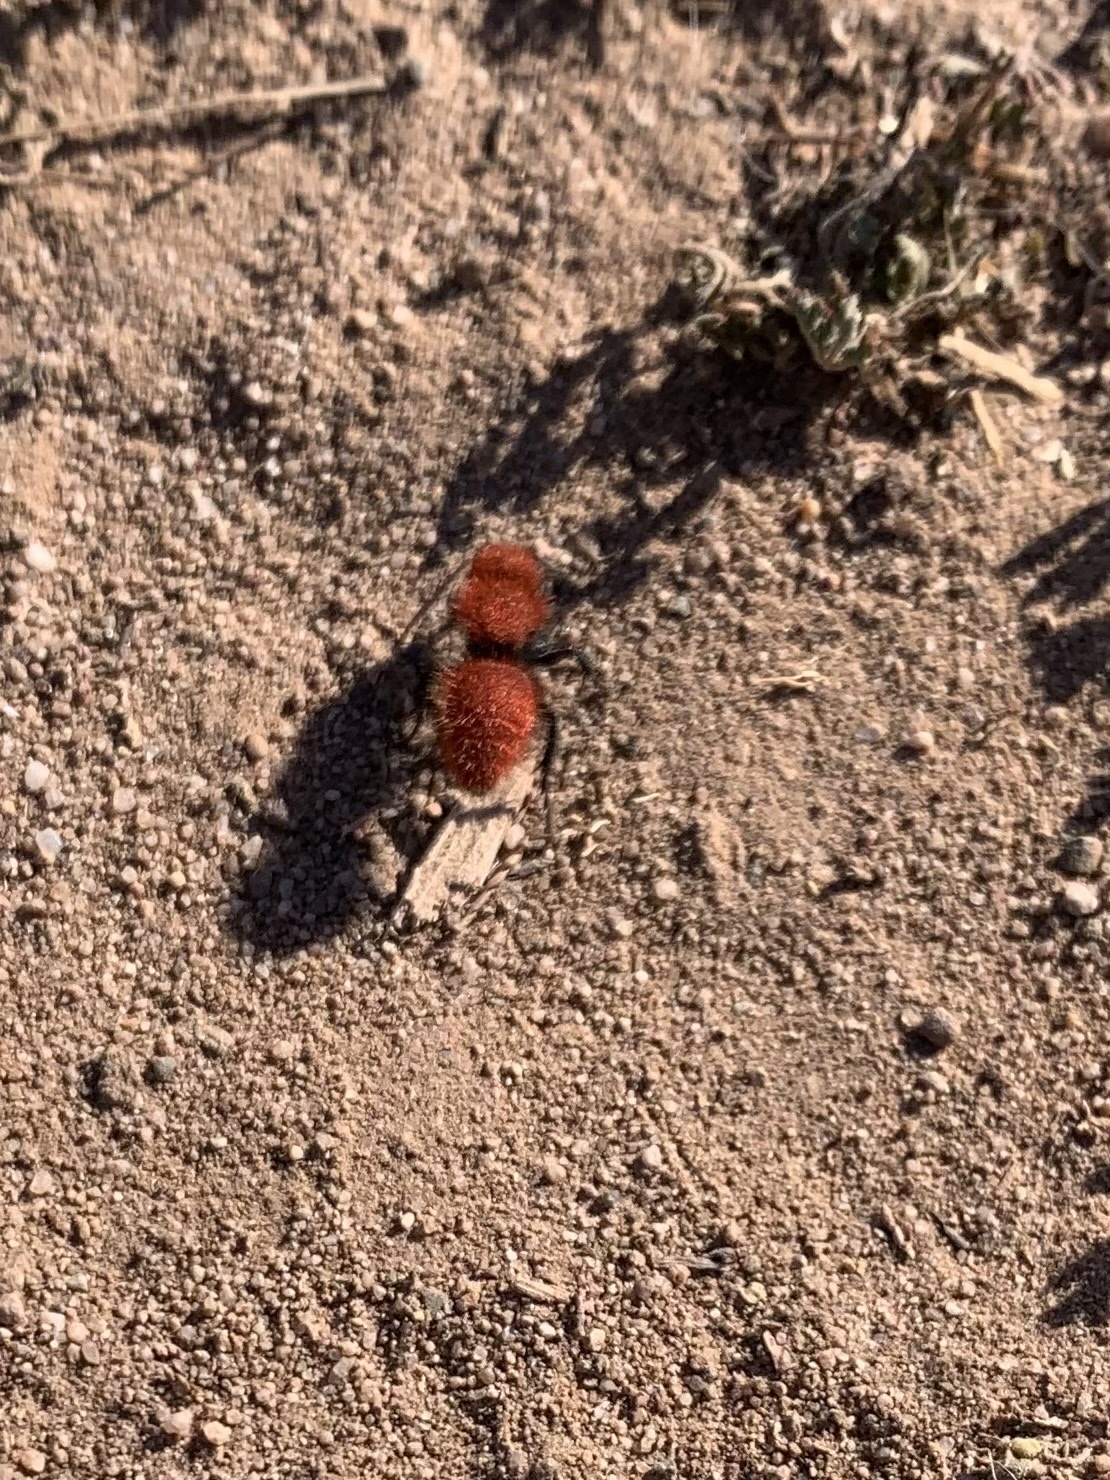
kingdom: Animalia
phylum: Arthropoda
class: Insecta
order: Hymenoptera
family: Mutillidae
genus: Dasymutilla
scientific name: Dasymutilla
